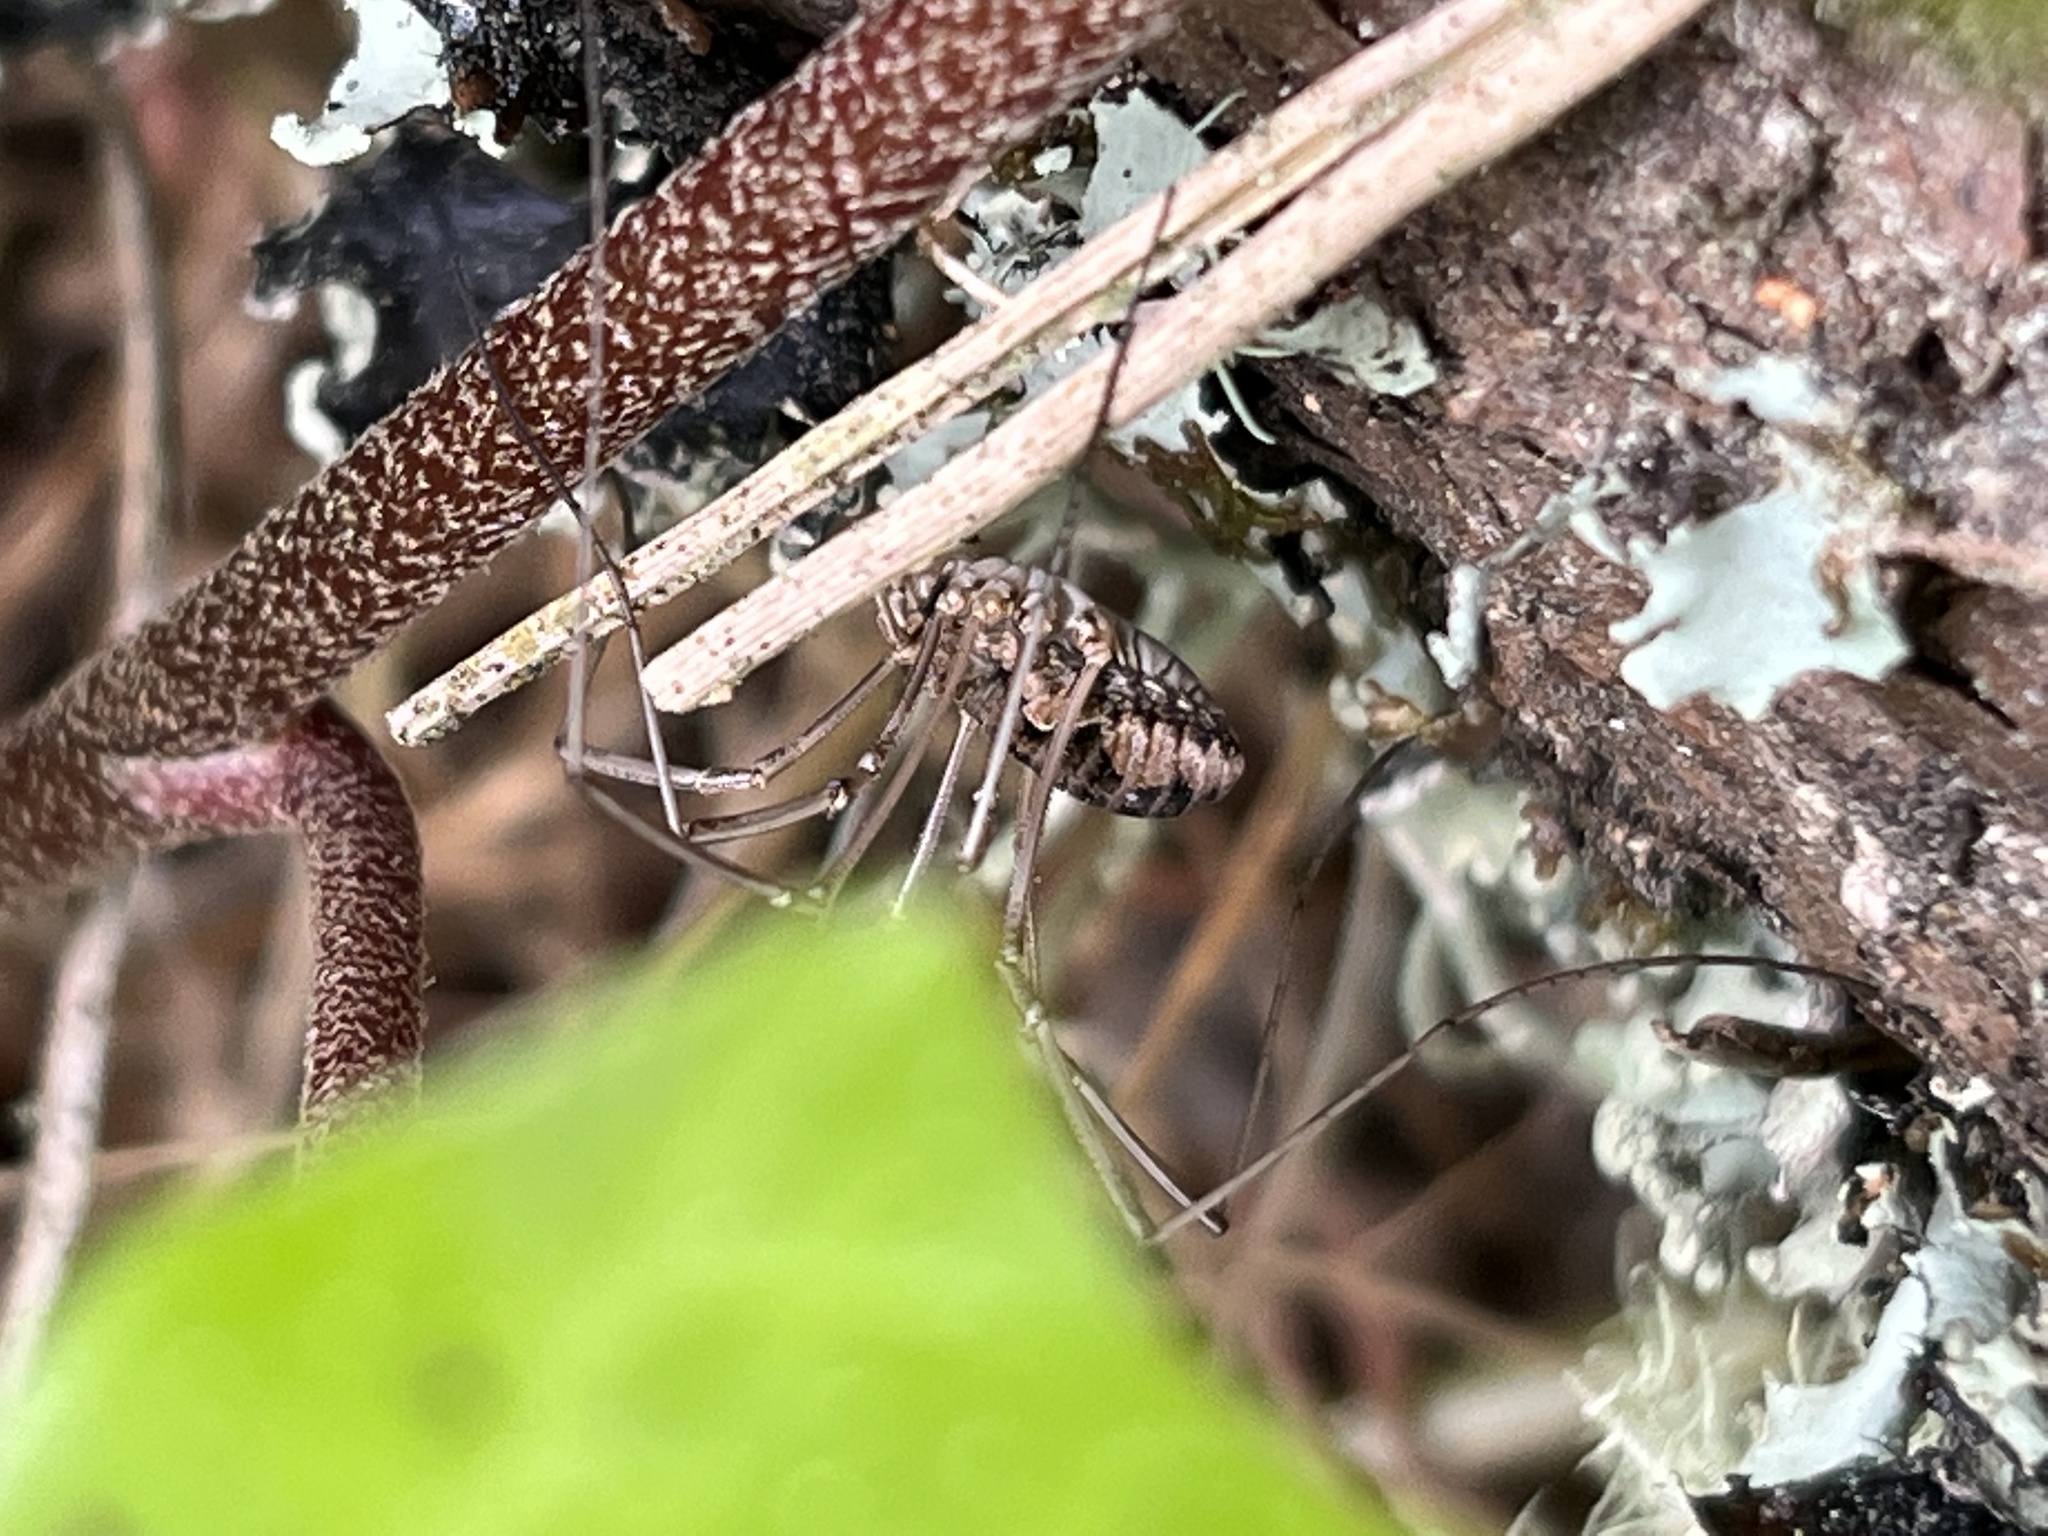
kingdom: Animalia
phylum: Arthropoda
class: Arachnida
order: Opiliones
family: Phalangiidae
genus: Phalangium
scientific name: Phalangium opilio
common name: Daddy longleg
